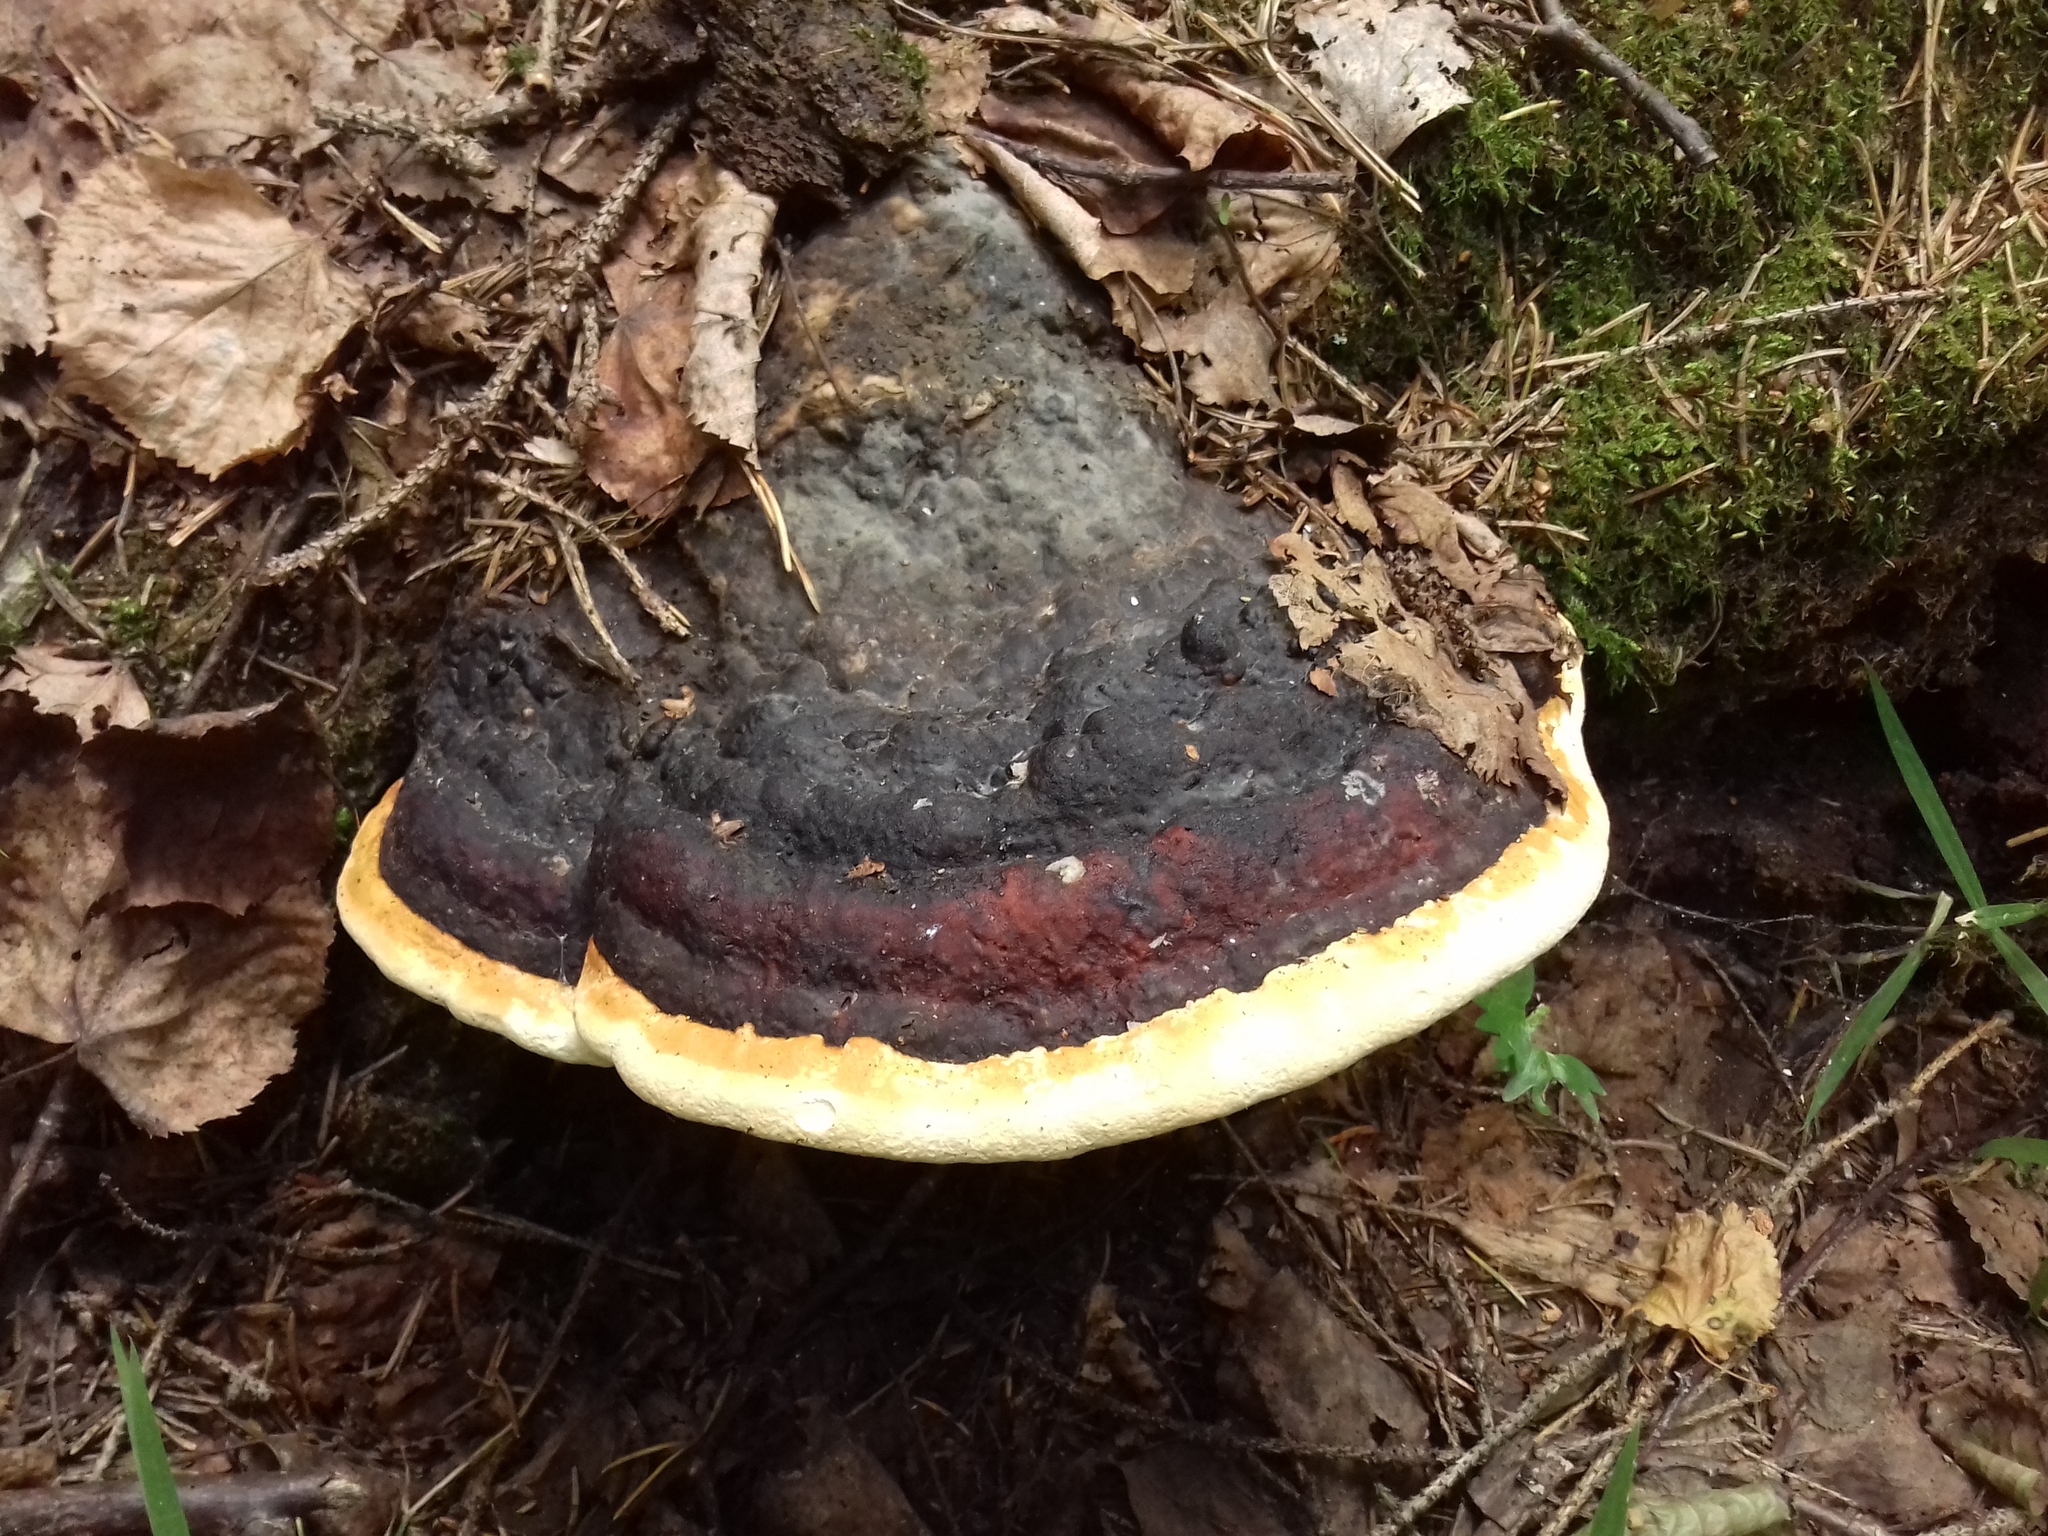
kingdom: Fungi
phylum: Basidiomycota
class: Agaricomycetes
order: Polyporales
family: Fomitopsidaceae
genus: Fomitopsis
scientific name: Fomitopsis pinicola
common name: Red-belted bracket
